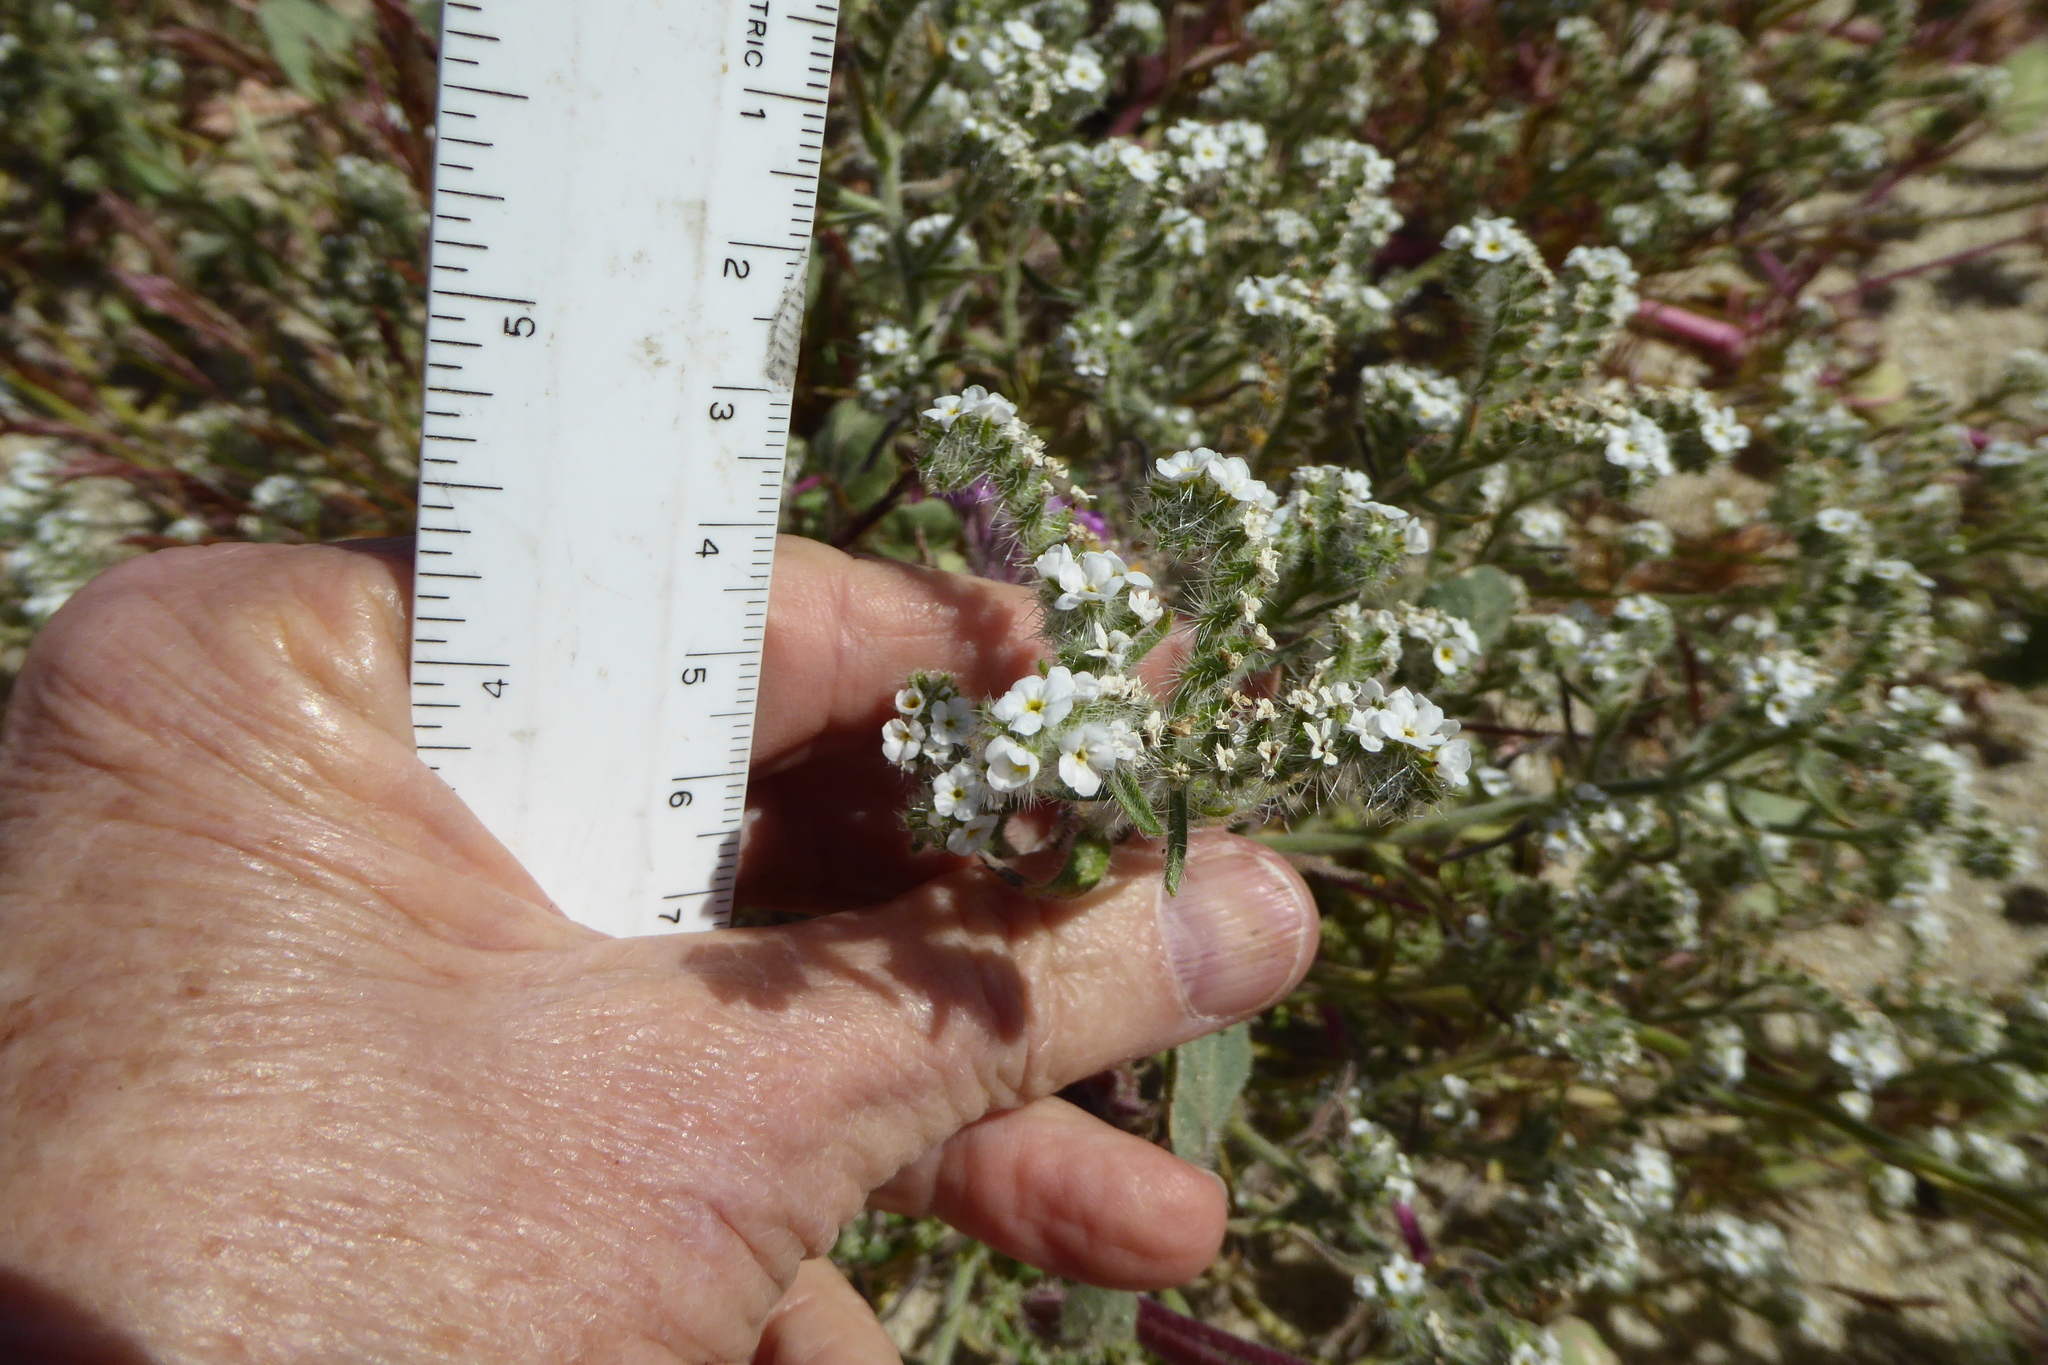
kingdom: Plantae
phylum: Tracheophyta
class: Magnoliopsida
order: Boraginales
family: Boraginaceae
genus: Johnstonella
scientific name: Johnstonella angustifolia
